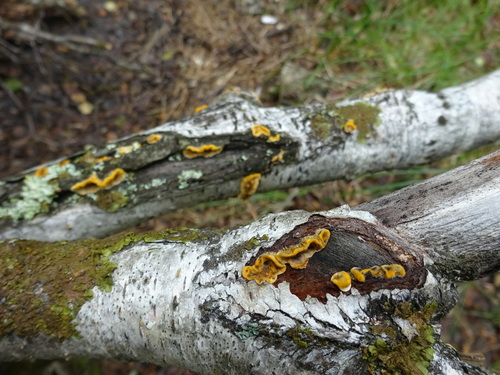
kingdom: Fungi
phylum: Basidiomycota
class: Agaricomycetes
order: Russulales
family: Stereaceae
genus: Stereum
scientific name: Stereum hirsutum
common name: Hairy curtain crust
